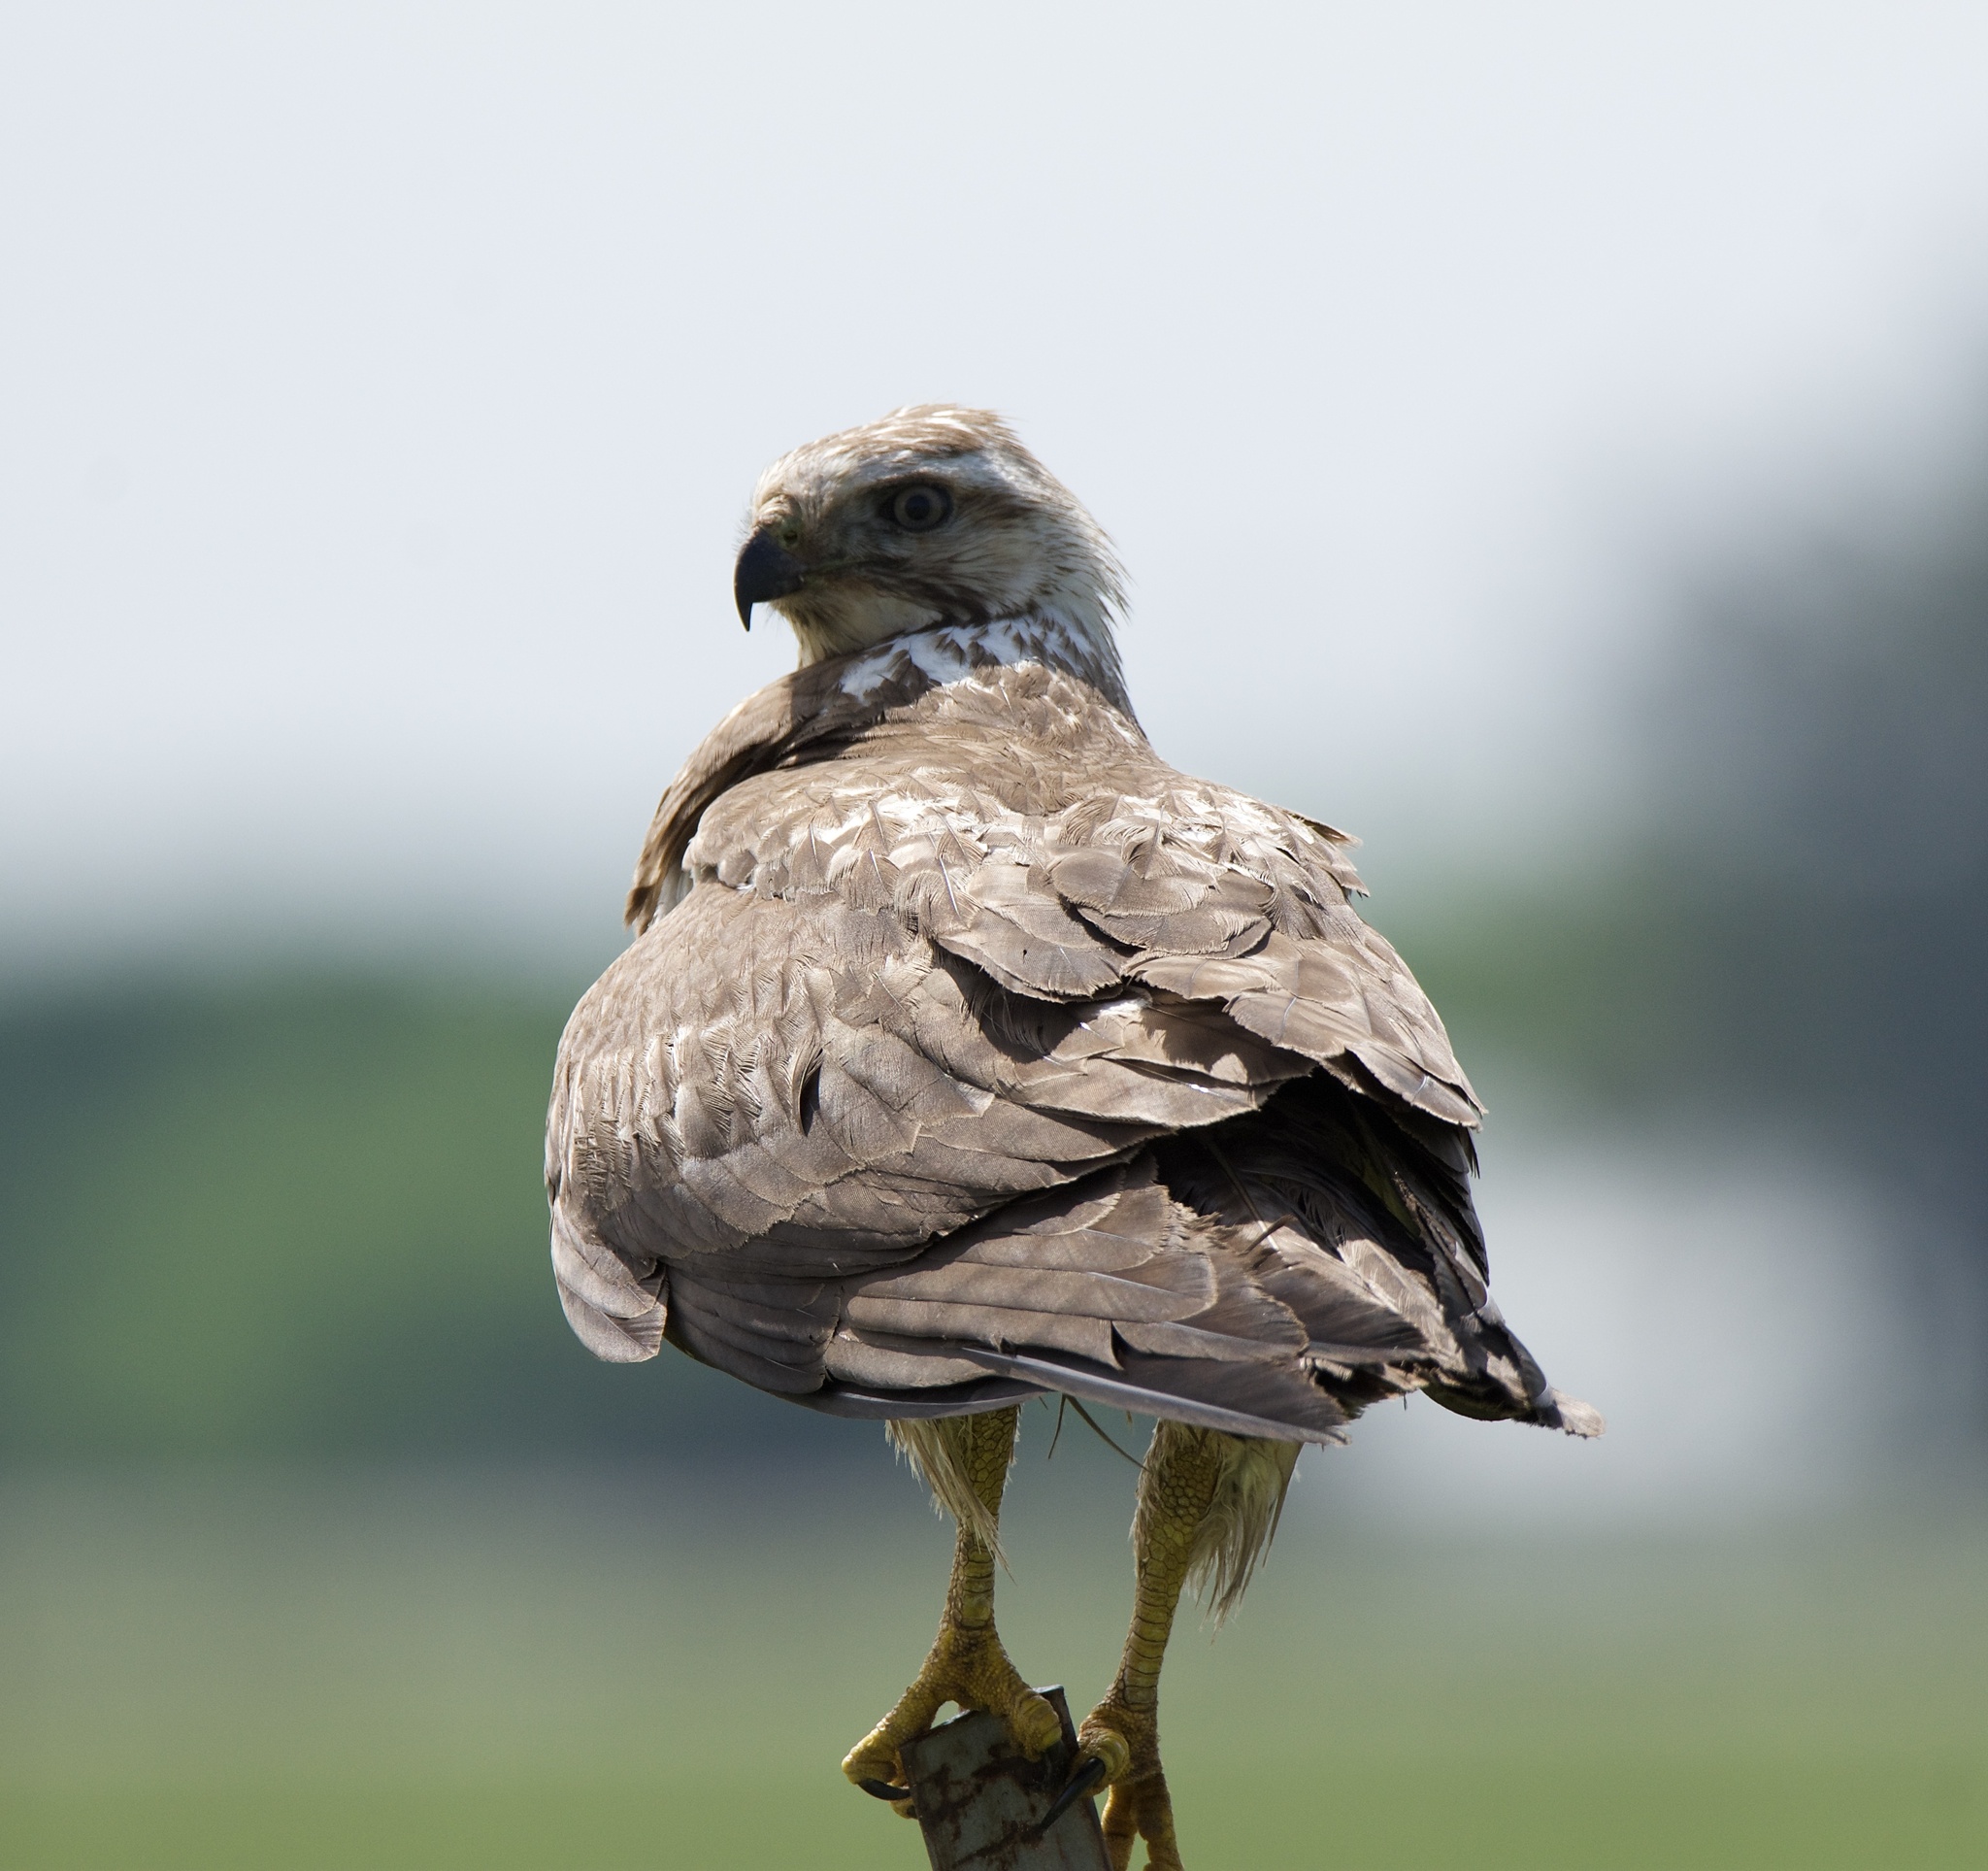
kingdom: Animalia
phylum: Chordata
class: Aves
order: Accipitriformes
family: Accipitridae
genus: Buteo
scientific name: Buteo swainsoni
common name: Swainson's hawk
